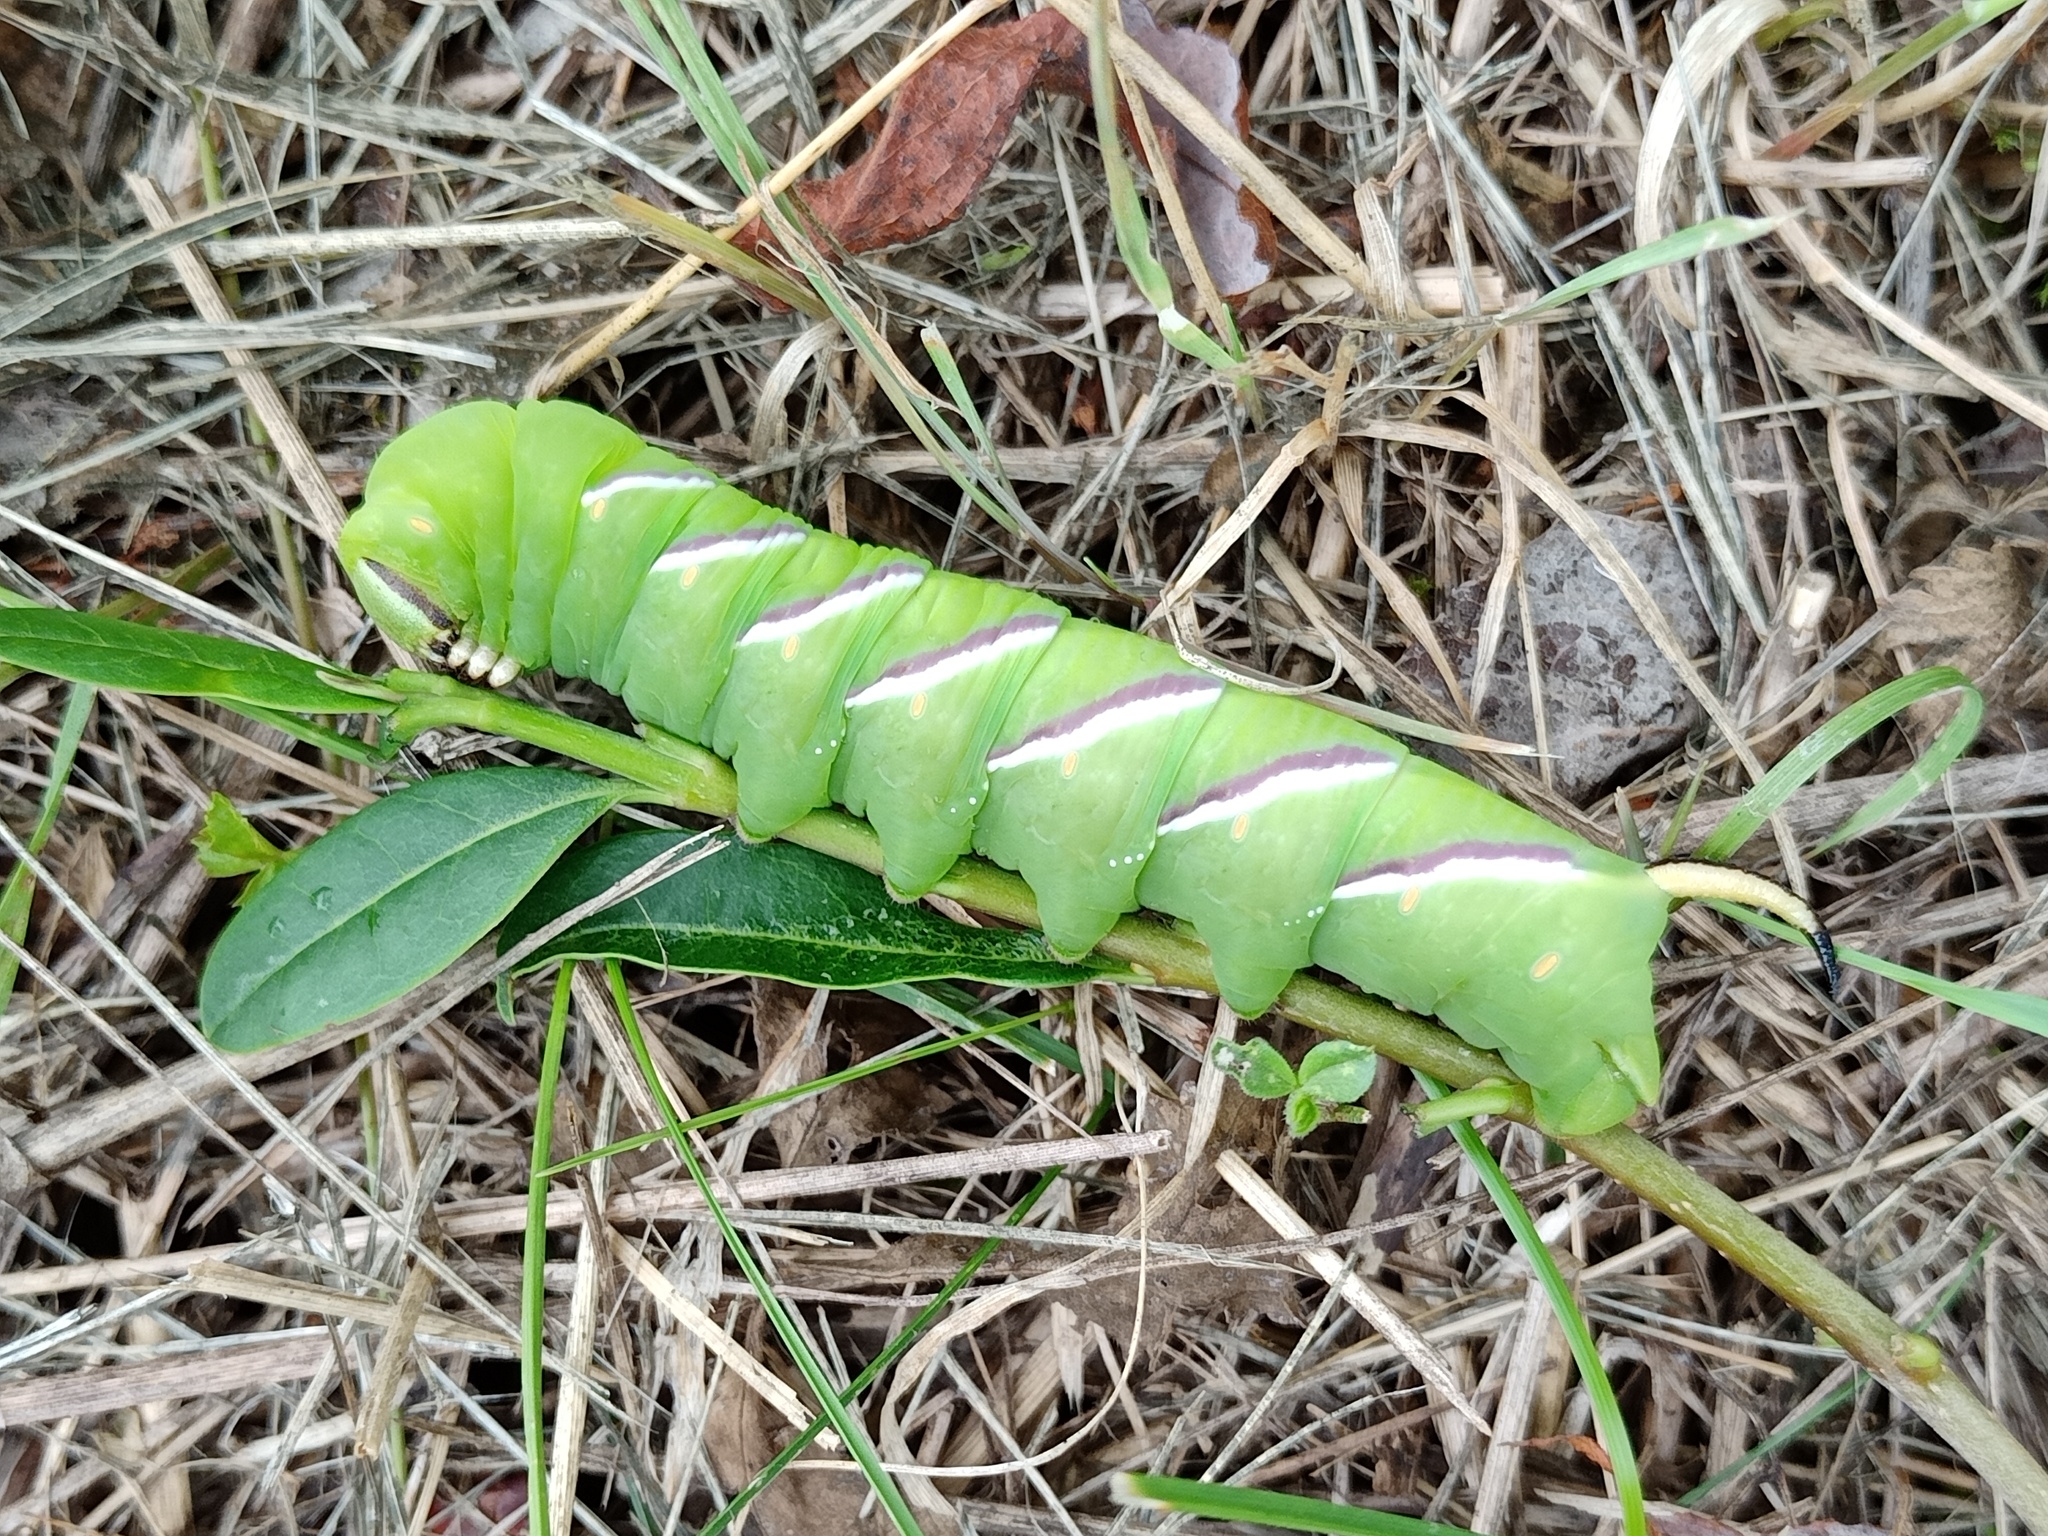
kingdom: Animalia
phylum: Arthropoda
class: Insecta
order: Lepidoptera
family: Sphingidae
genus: Sphinx
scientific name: Sphinx ligustri
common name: Privet hawk-moth
